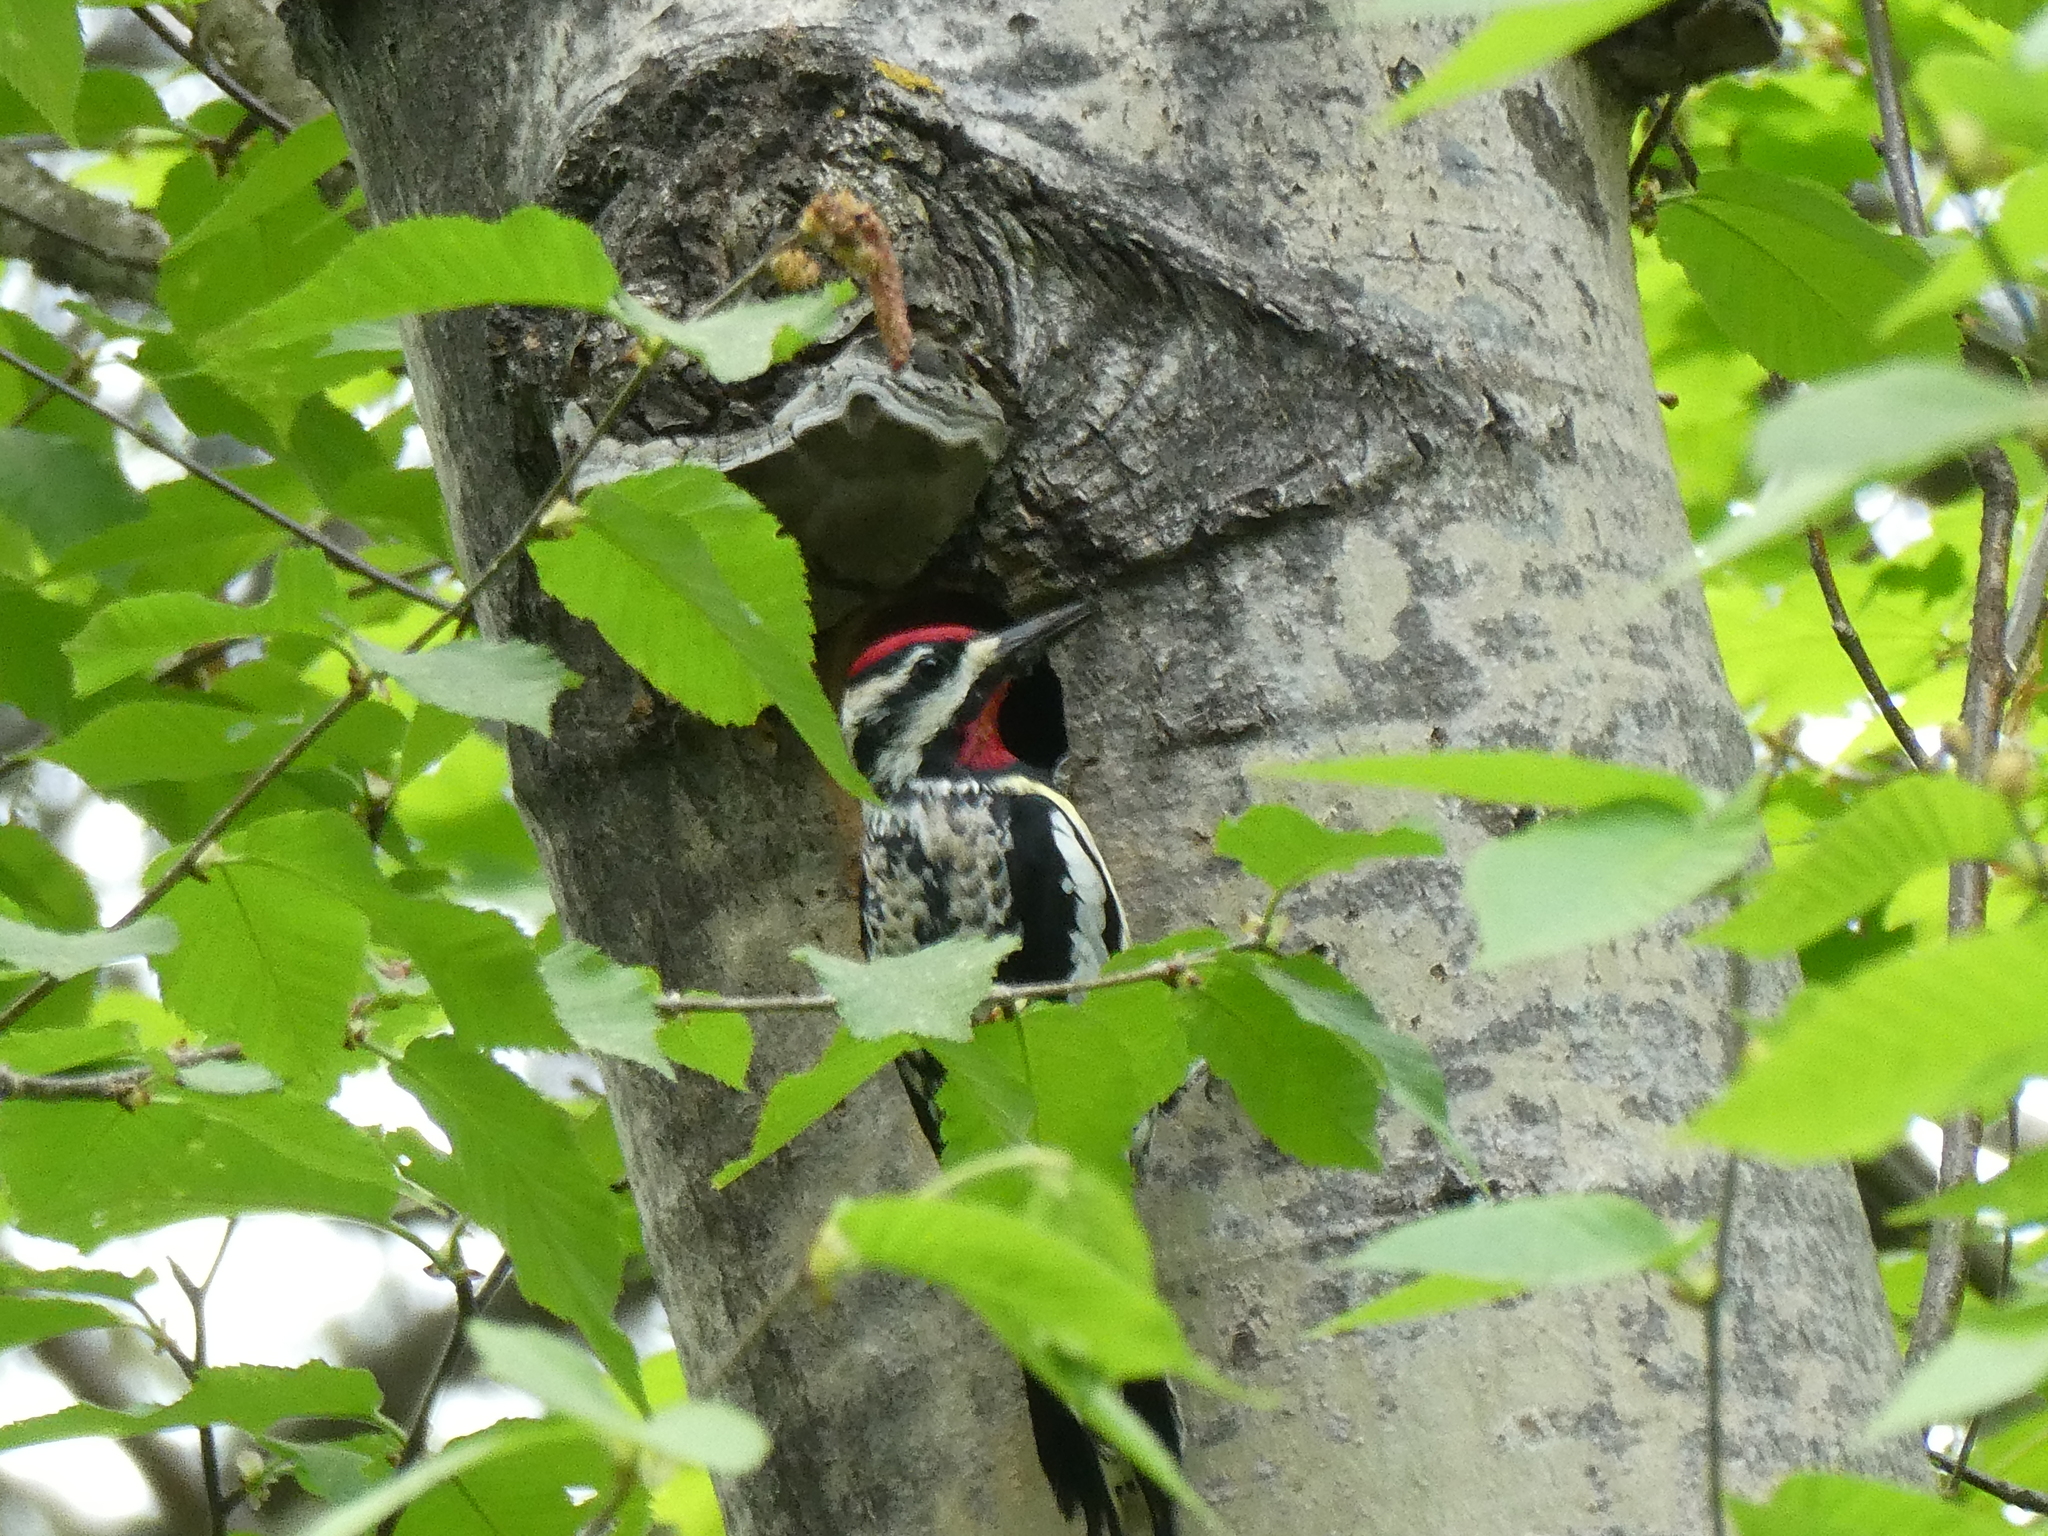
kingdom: Animalia
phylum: Chordata
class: Aves
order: Piciformes
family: Picidae
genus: Sphyrapicus
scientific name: Sphyrapicus varius
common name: Yellow-bellied sapsucker
